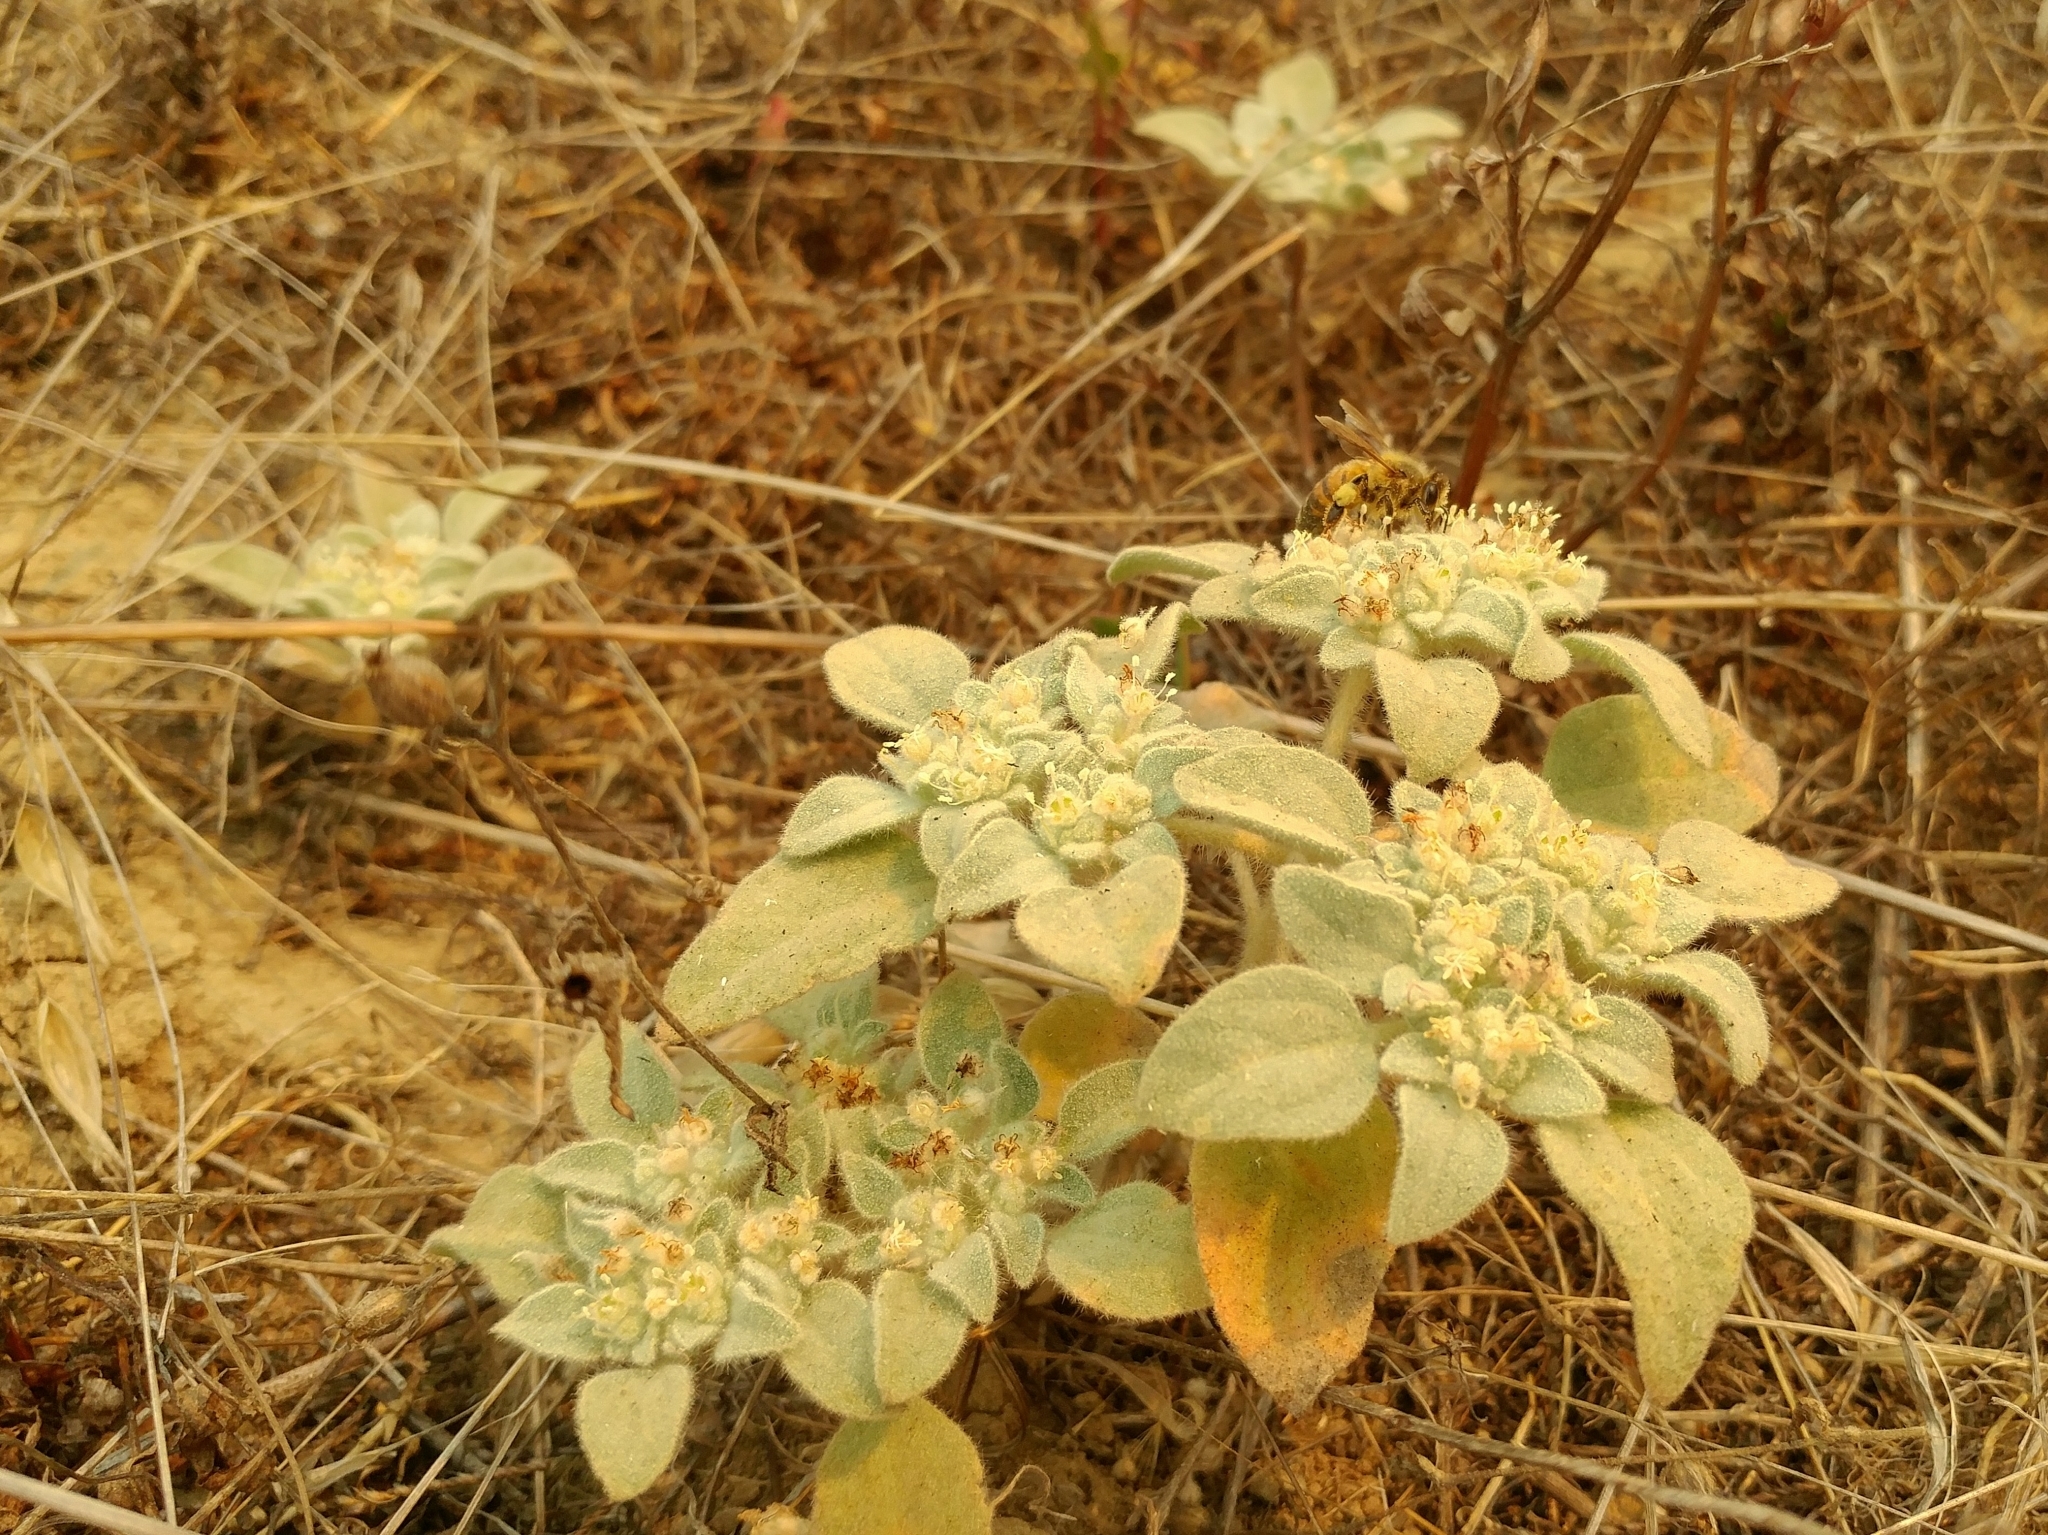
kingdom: Plantae
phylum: Tracheophyta
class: Magnoliopsida
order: Malpighiales
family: Euphorbiaceae
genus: Croton
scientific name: Croton setiger
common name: Dove weed
